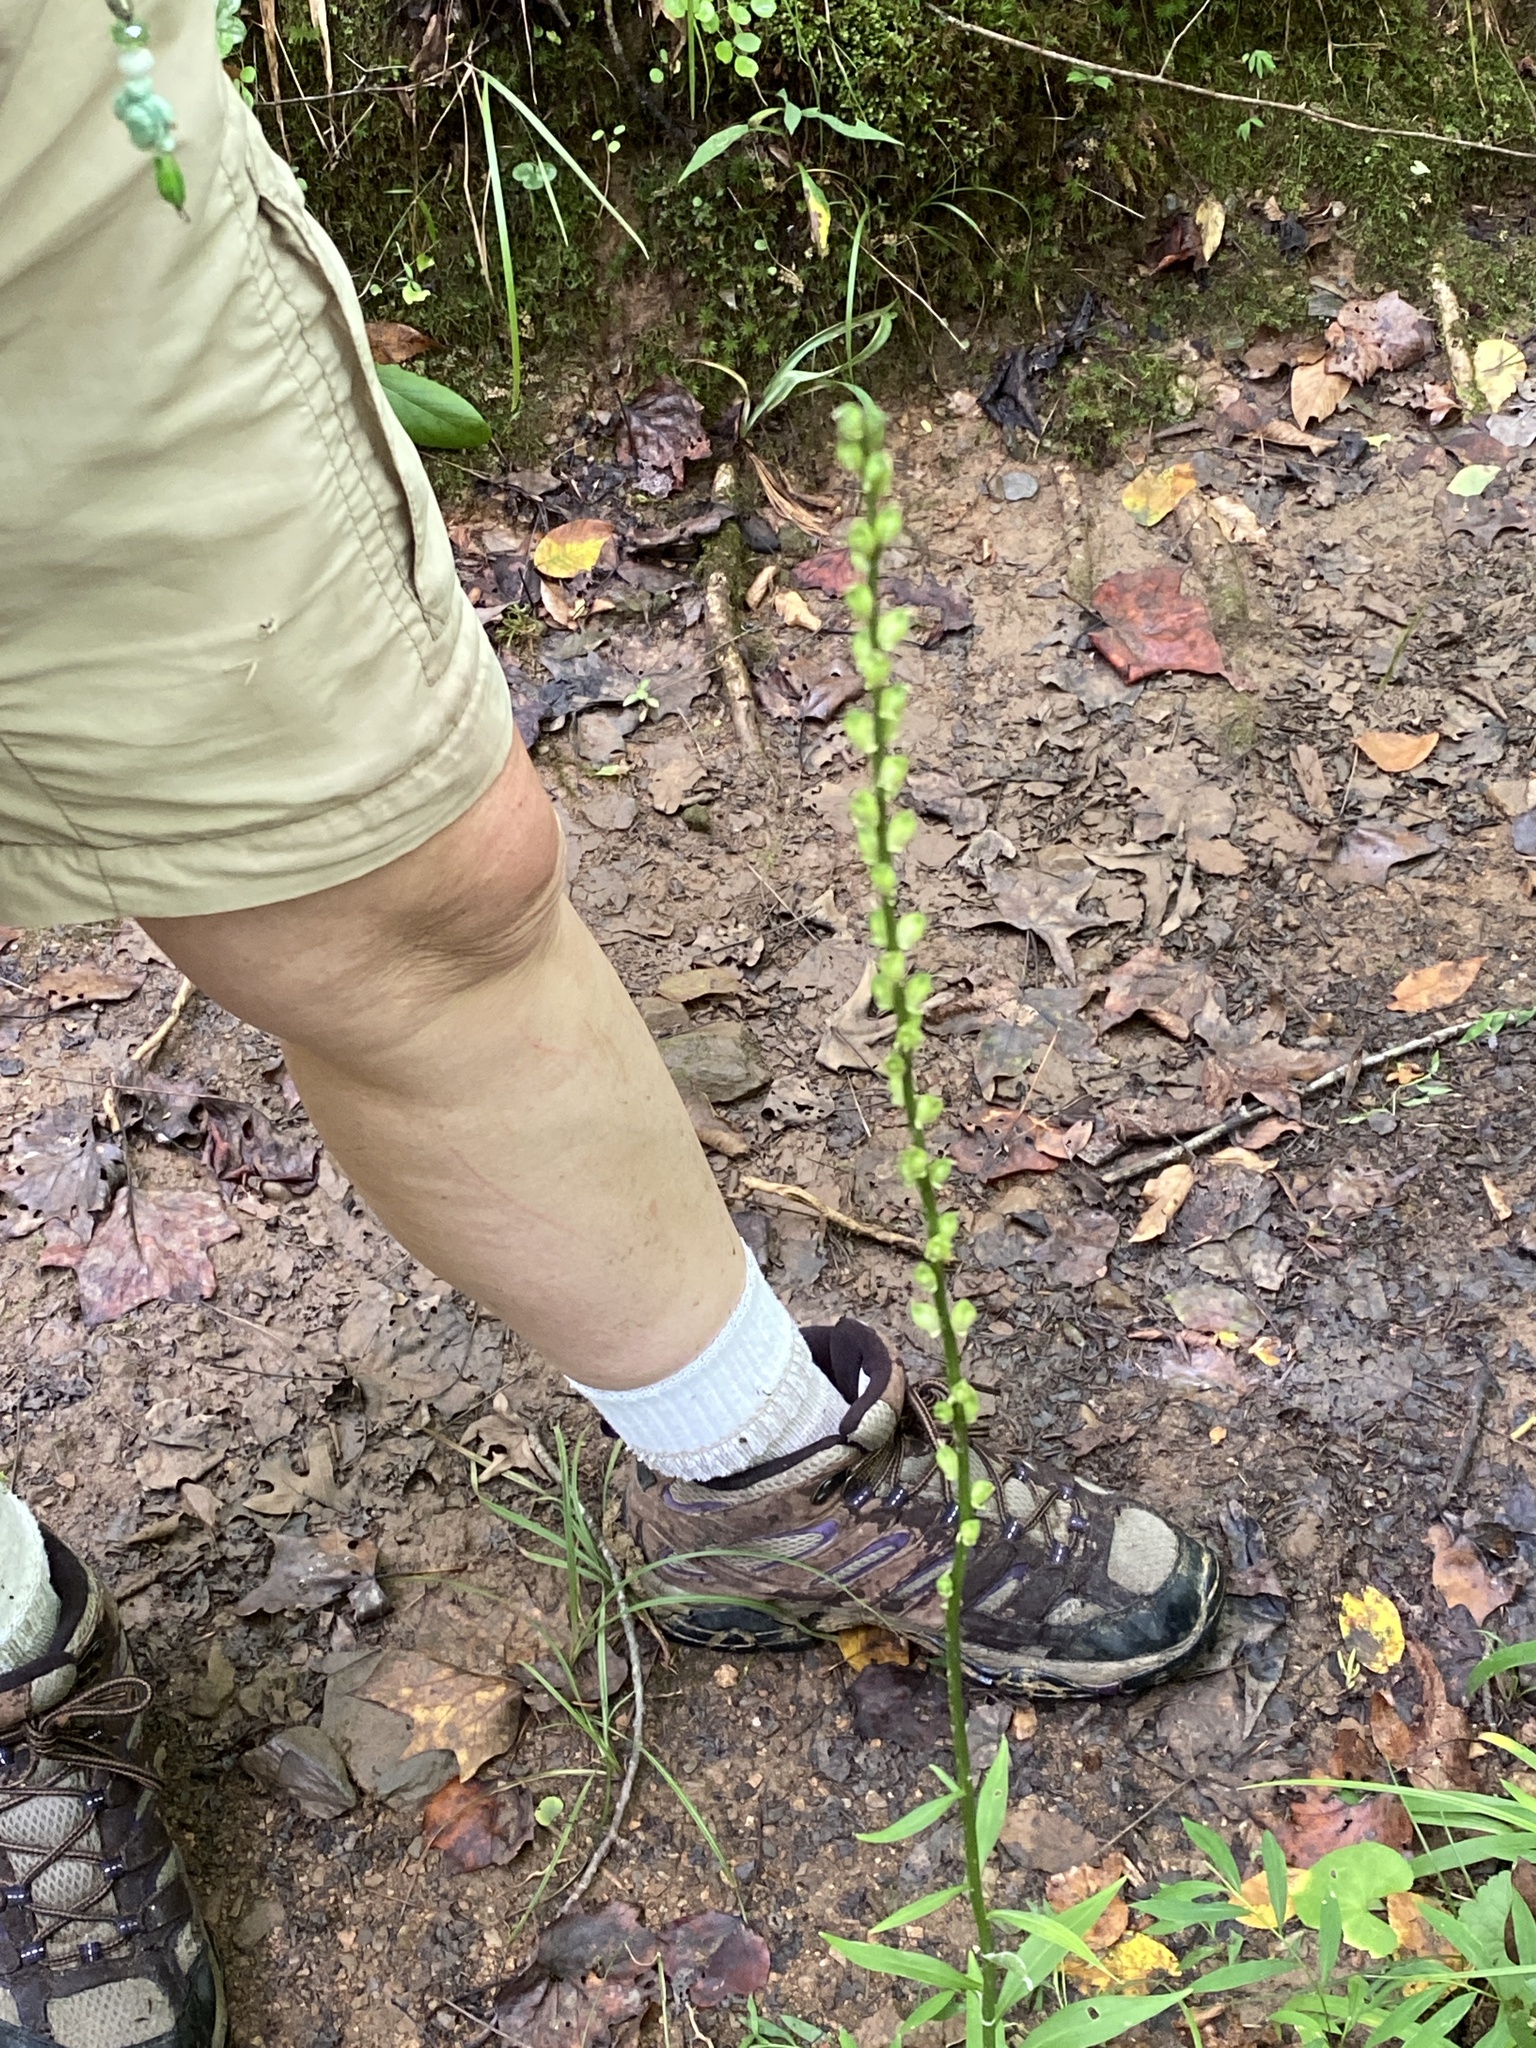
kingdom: Plantae
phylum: Tracheophyta
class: Liliopsida
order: Liliales
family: Melanthiaceae
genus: Chamaelirium
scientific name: Chamaelirium luteum
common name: Fairy-wand
